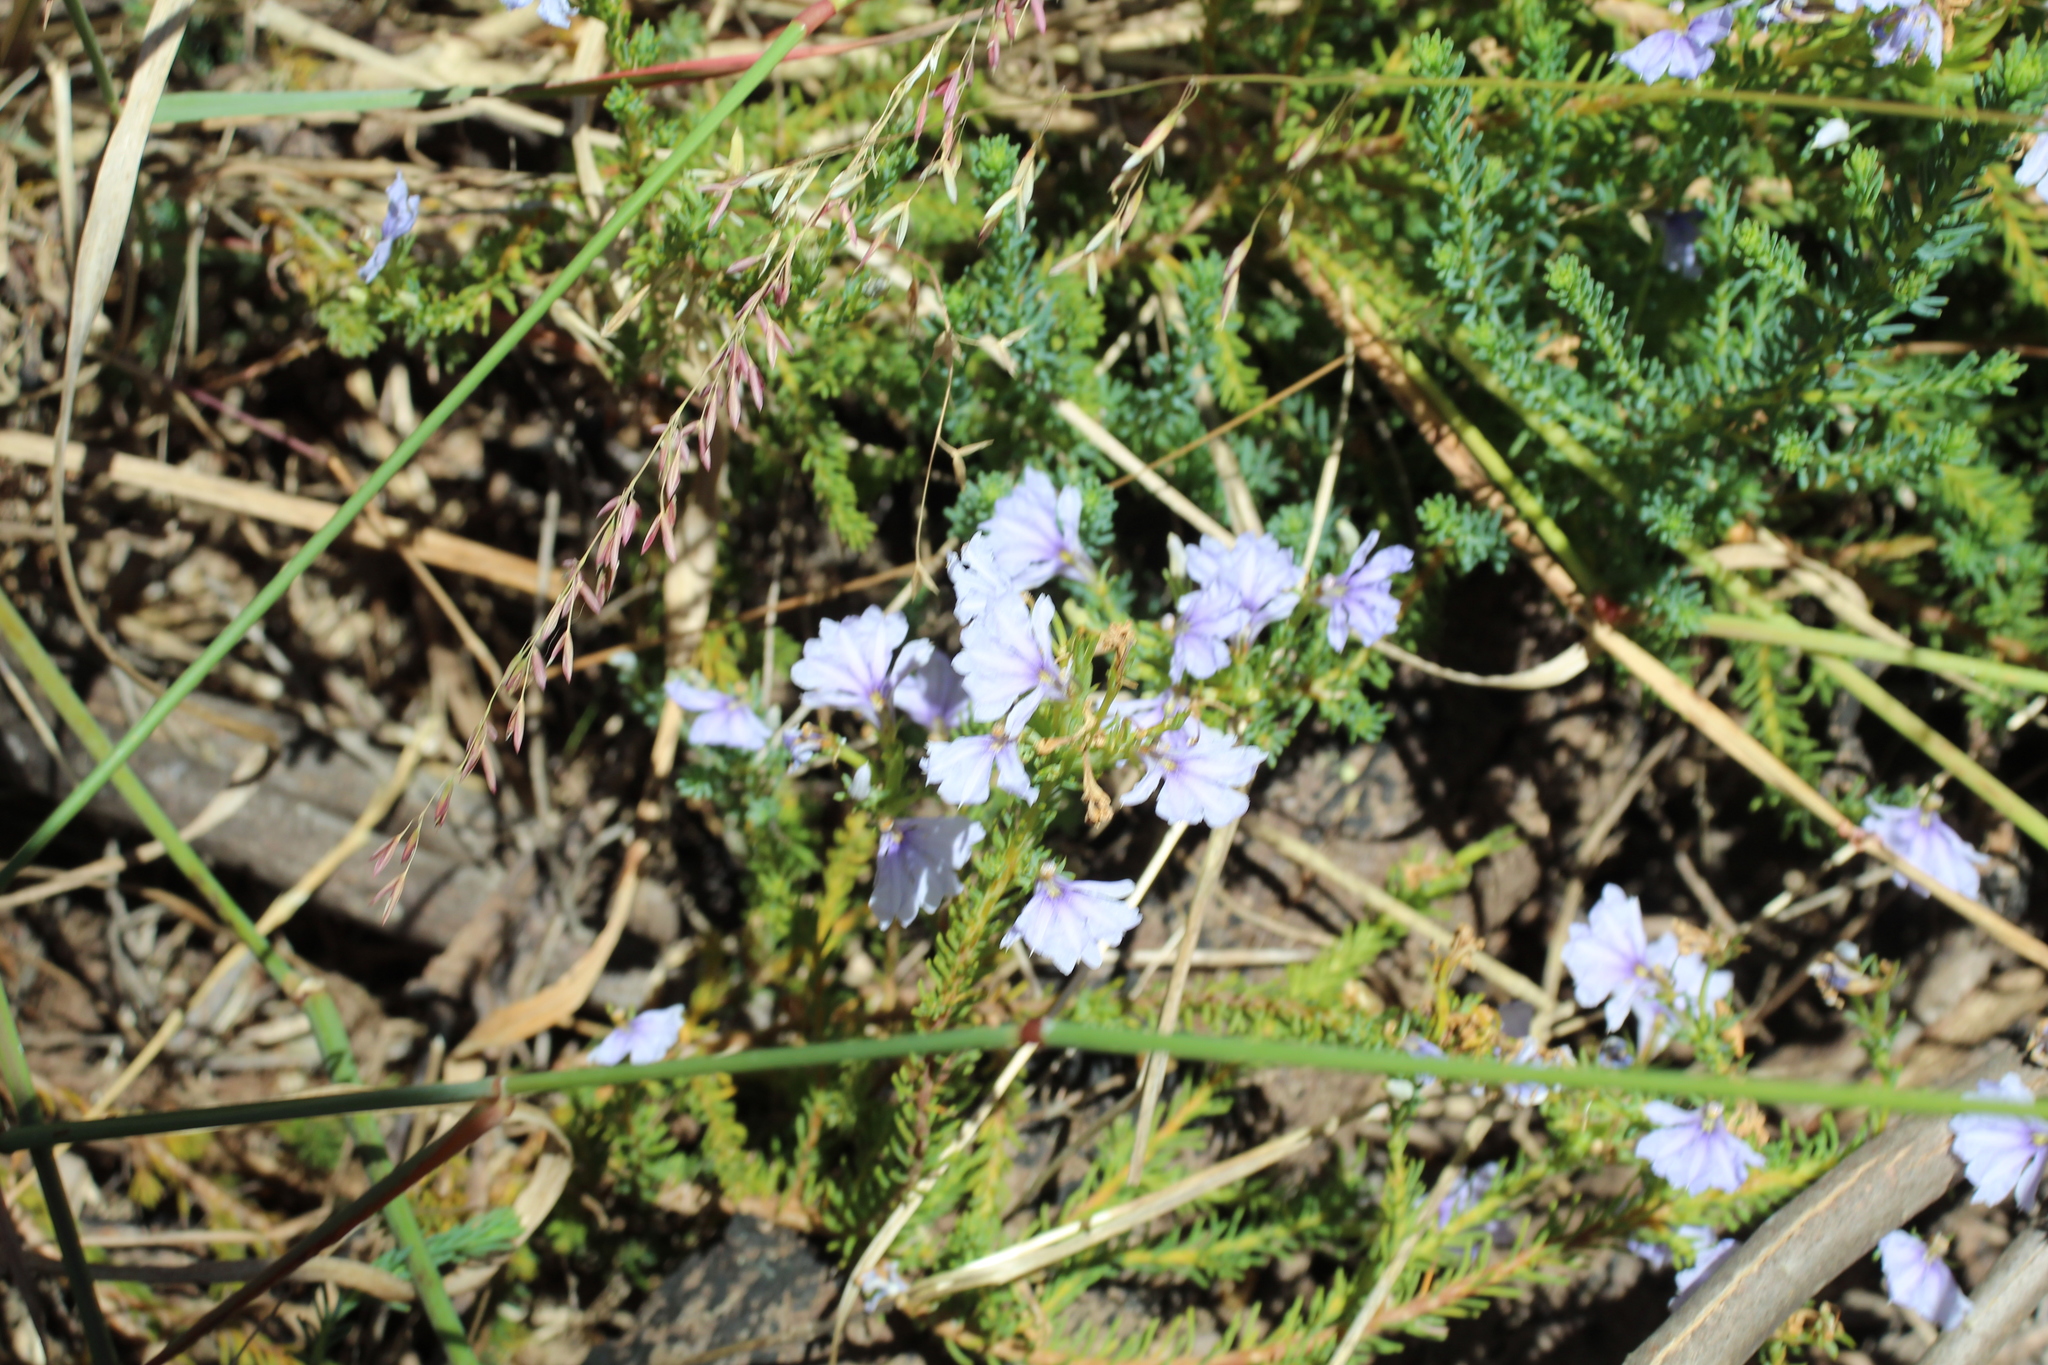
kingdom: Plantae
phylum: Tracheophyta
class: Magnoliopsida
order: Asterales
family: Goodeniaceae
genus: Lechenaultia
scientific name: Lechenaultia floribunda
